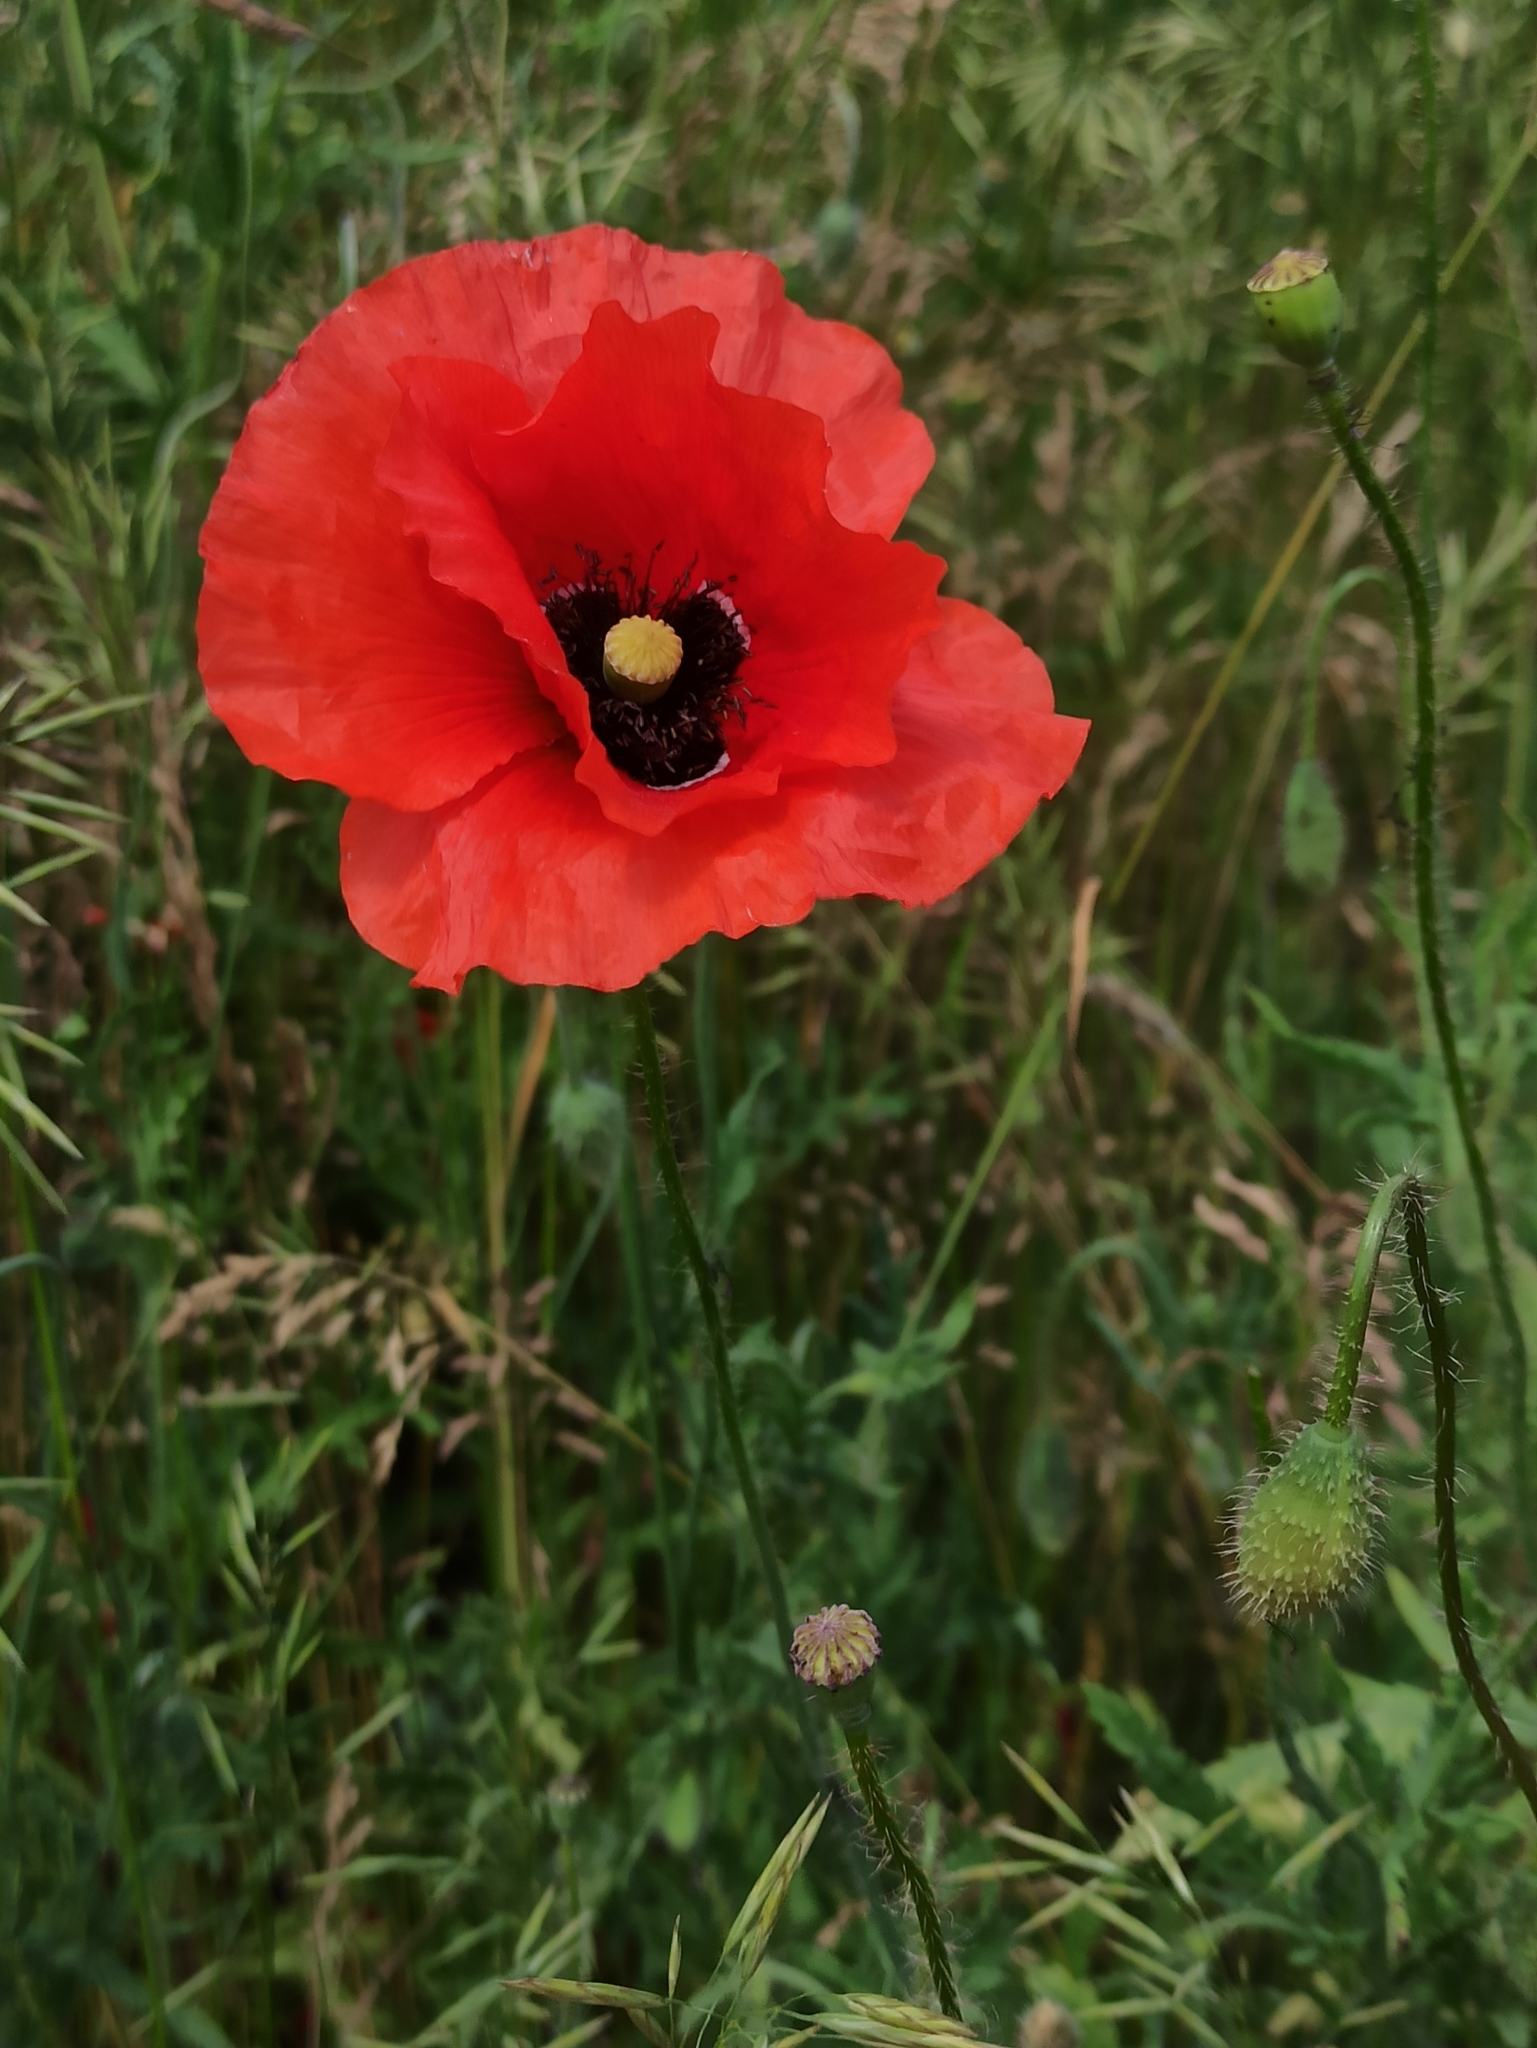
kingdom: Plantae
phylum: Tracheophyta
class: Magnoliopsida
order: Ranunculales
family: Papaveraceae
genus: Papaver
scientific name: Papaver rhoeas
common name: Corn poppy
